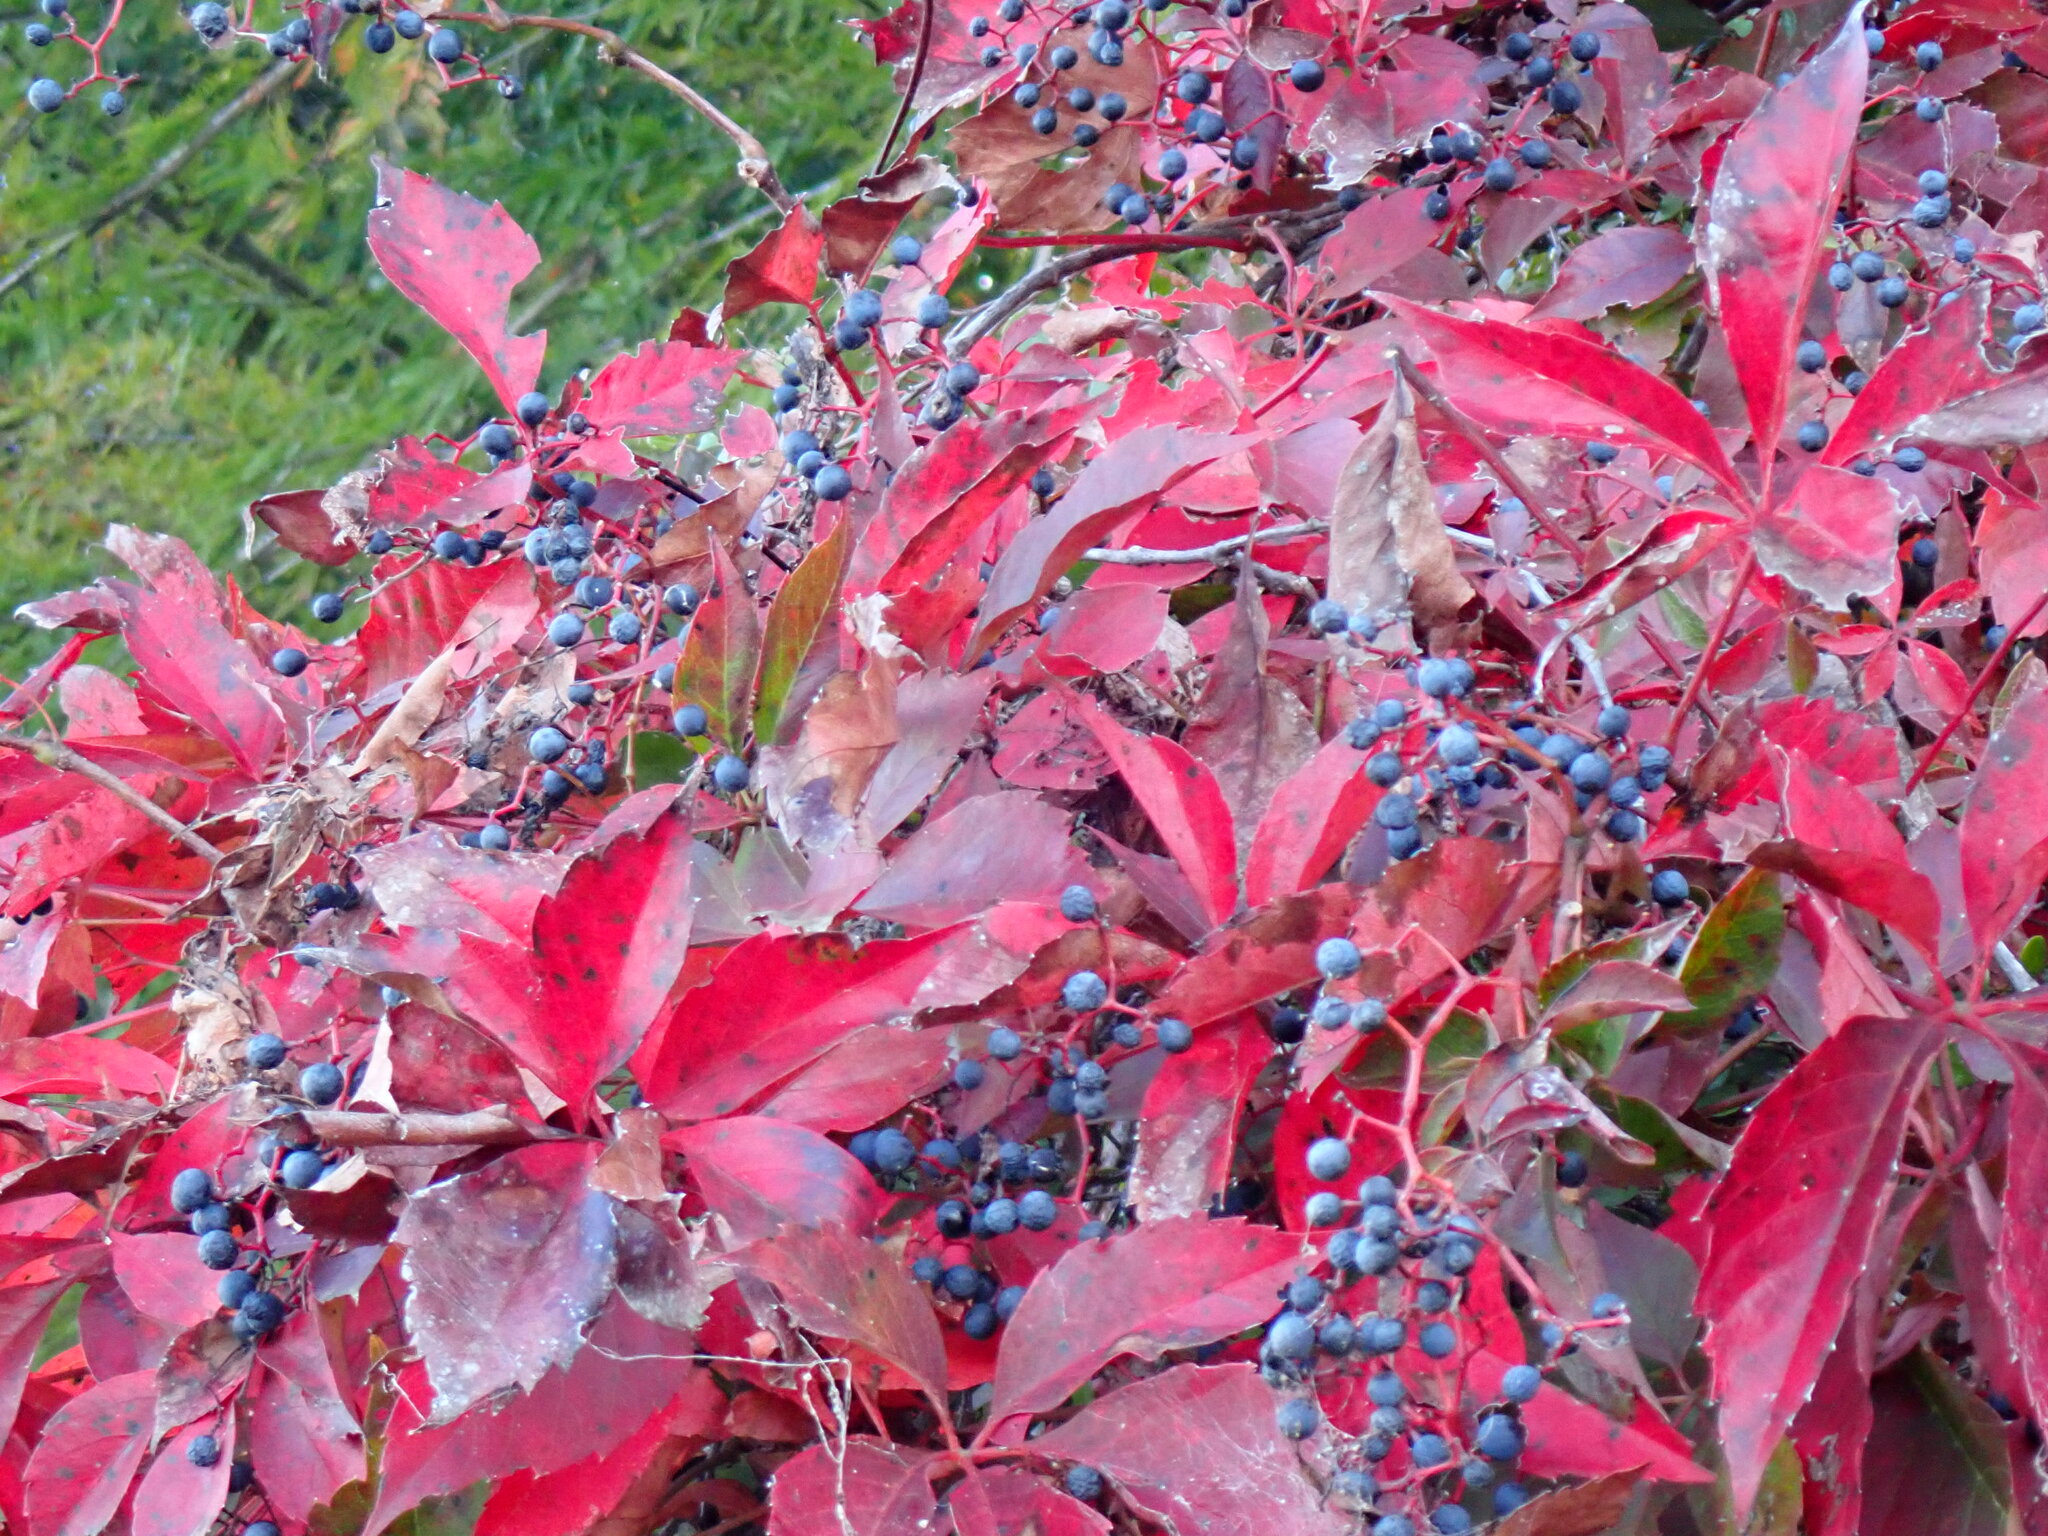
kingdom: Plantae
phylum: Tracheophyta
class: Magnoliopsida
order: Vitales
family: Vitaceae
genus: Parthenocissus
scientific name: Parthenocissus quinquefolia
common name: Virginia-creeper
